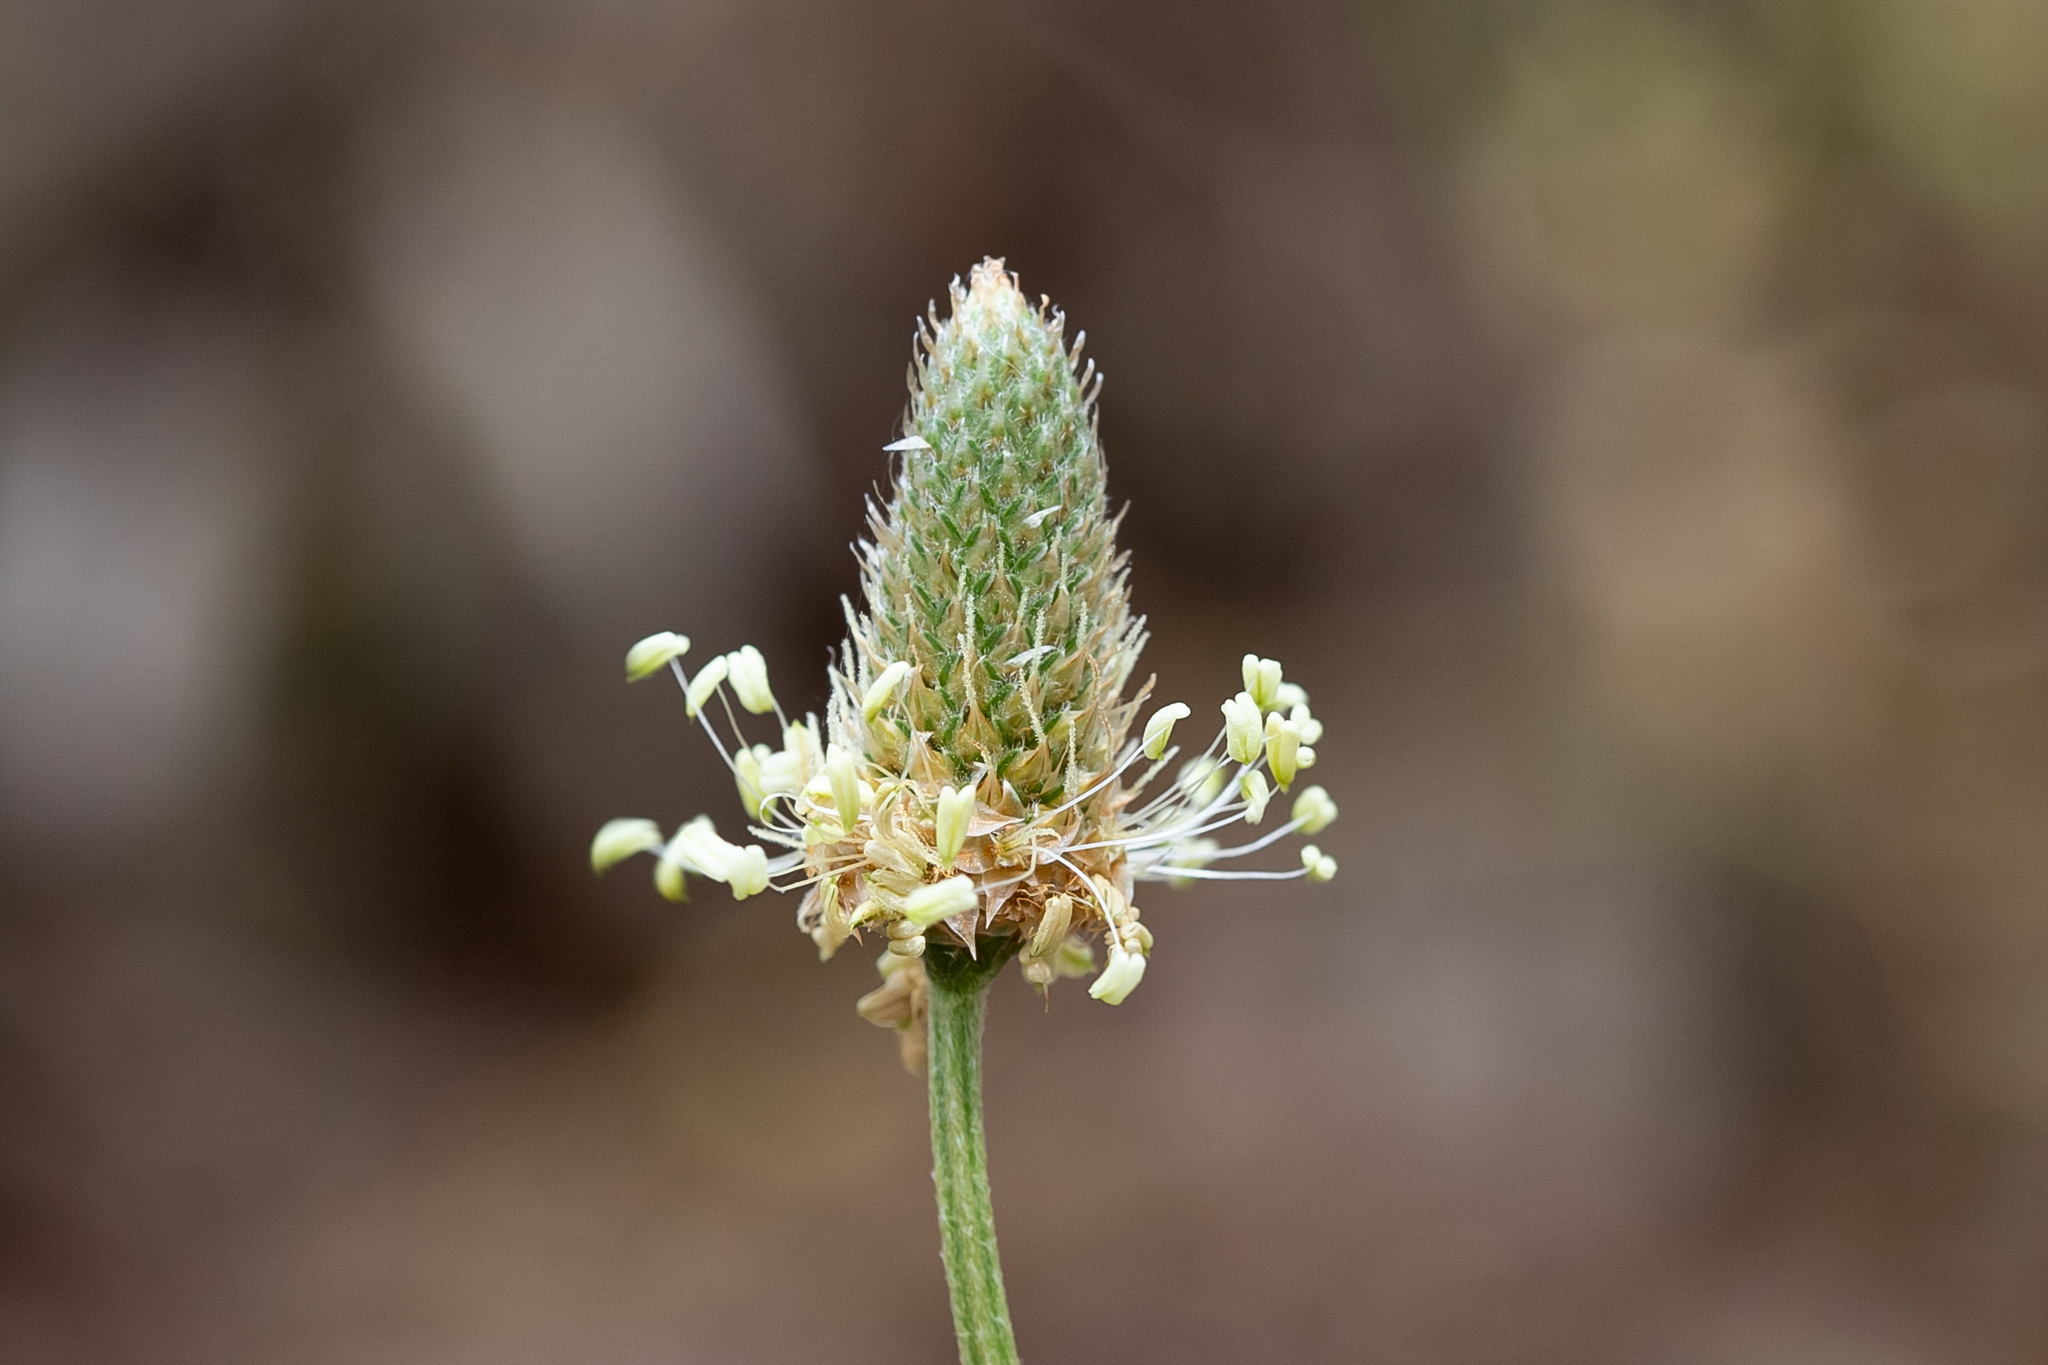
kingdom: Plantae
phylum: Tracheophyta
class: Magnoliopsida
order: Lamiales
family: Plantaginaceae
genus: Plantago
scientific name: Plantago lanceolata
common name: Ribwort plantain
